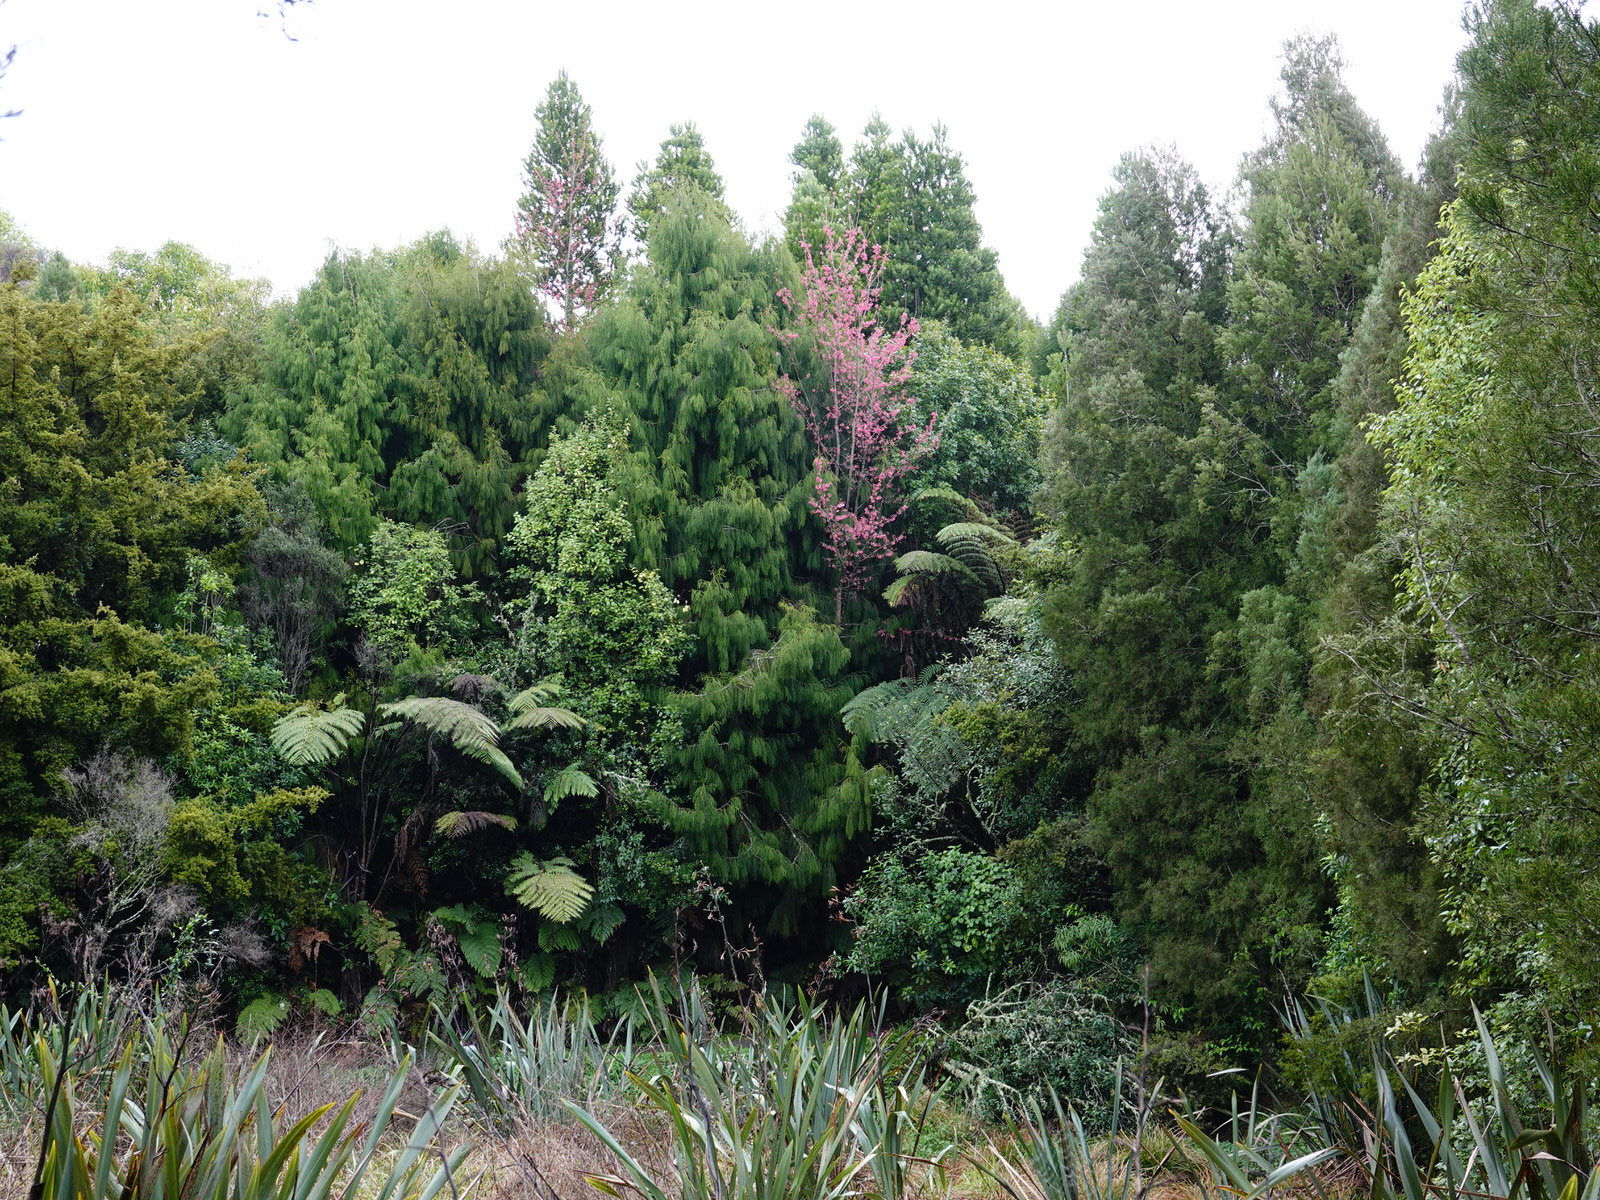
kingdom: Plantae
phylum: Tracheophyta
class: Magnoliopsida
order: Rosales
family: Rosaceae
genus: Prunus
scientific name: Prunus campanulata
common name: Taiwan flowering cherry
